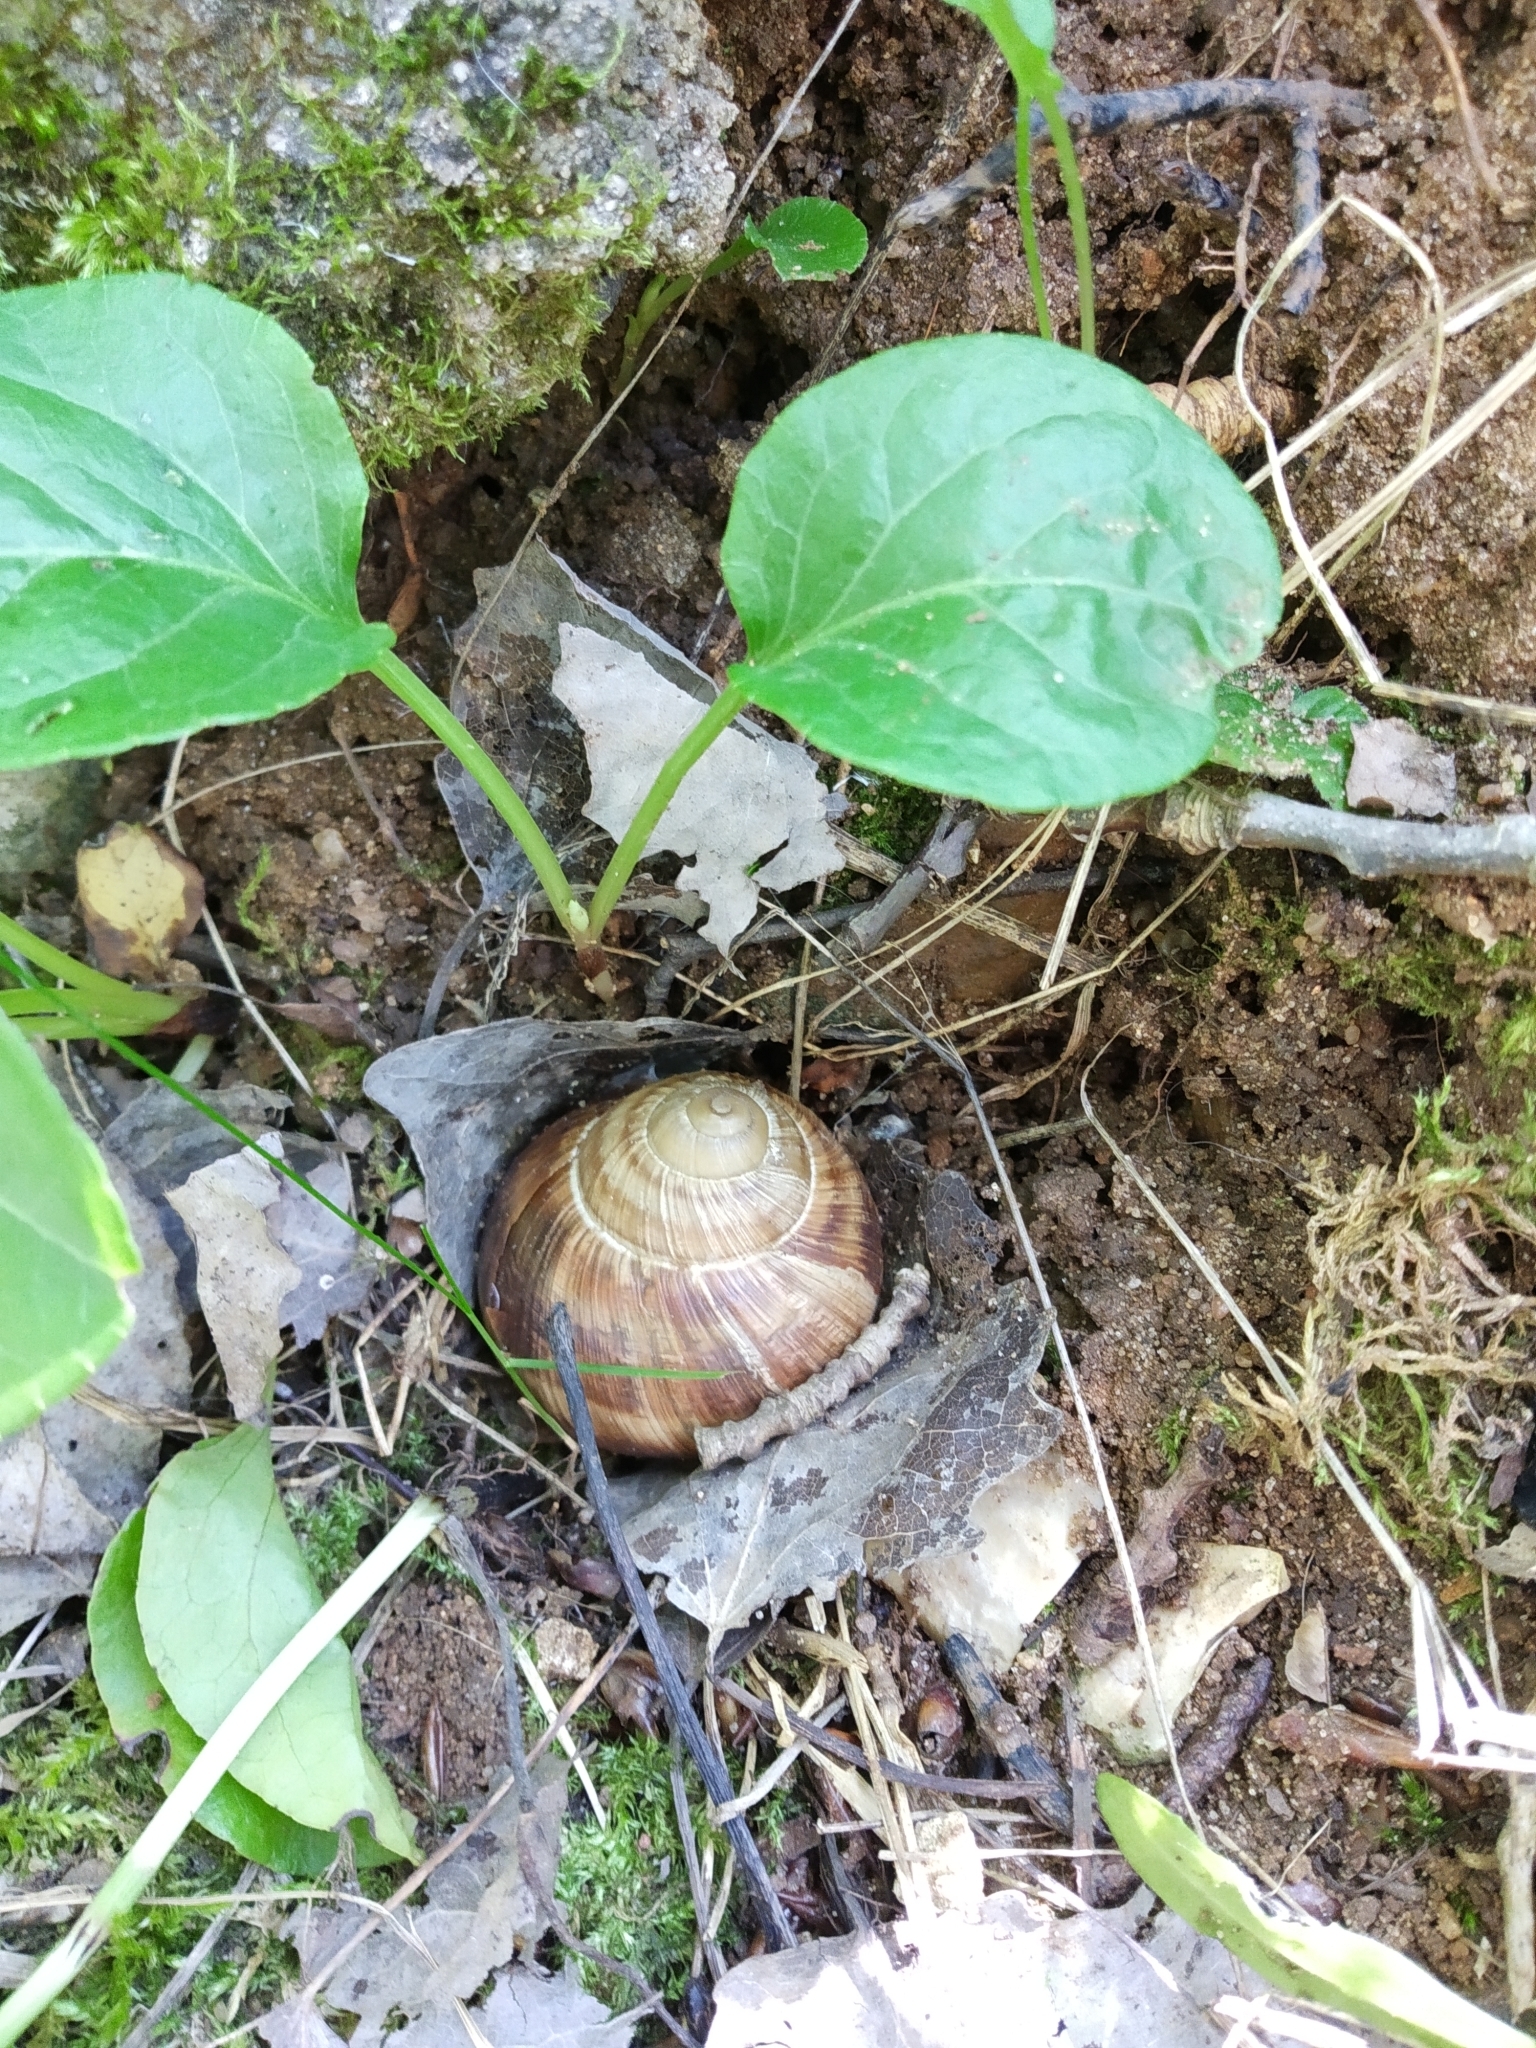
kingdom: Animalia
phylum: Mollusca
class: Gastropoda
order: Stylommatophora
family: Helicidae
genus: Helix
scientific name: Helix pomatia
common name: Roman snail
